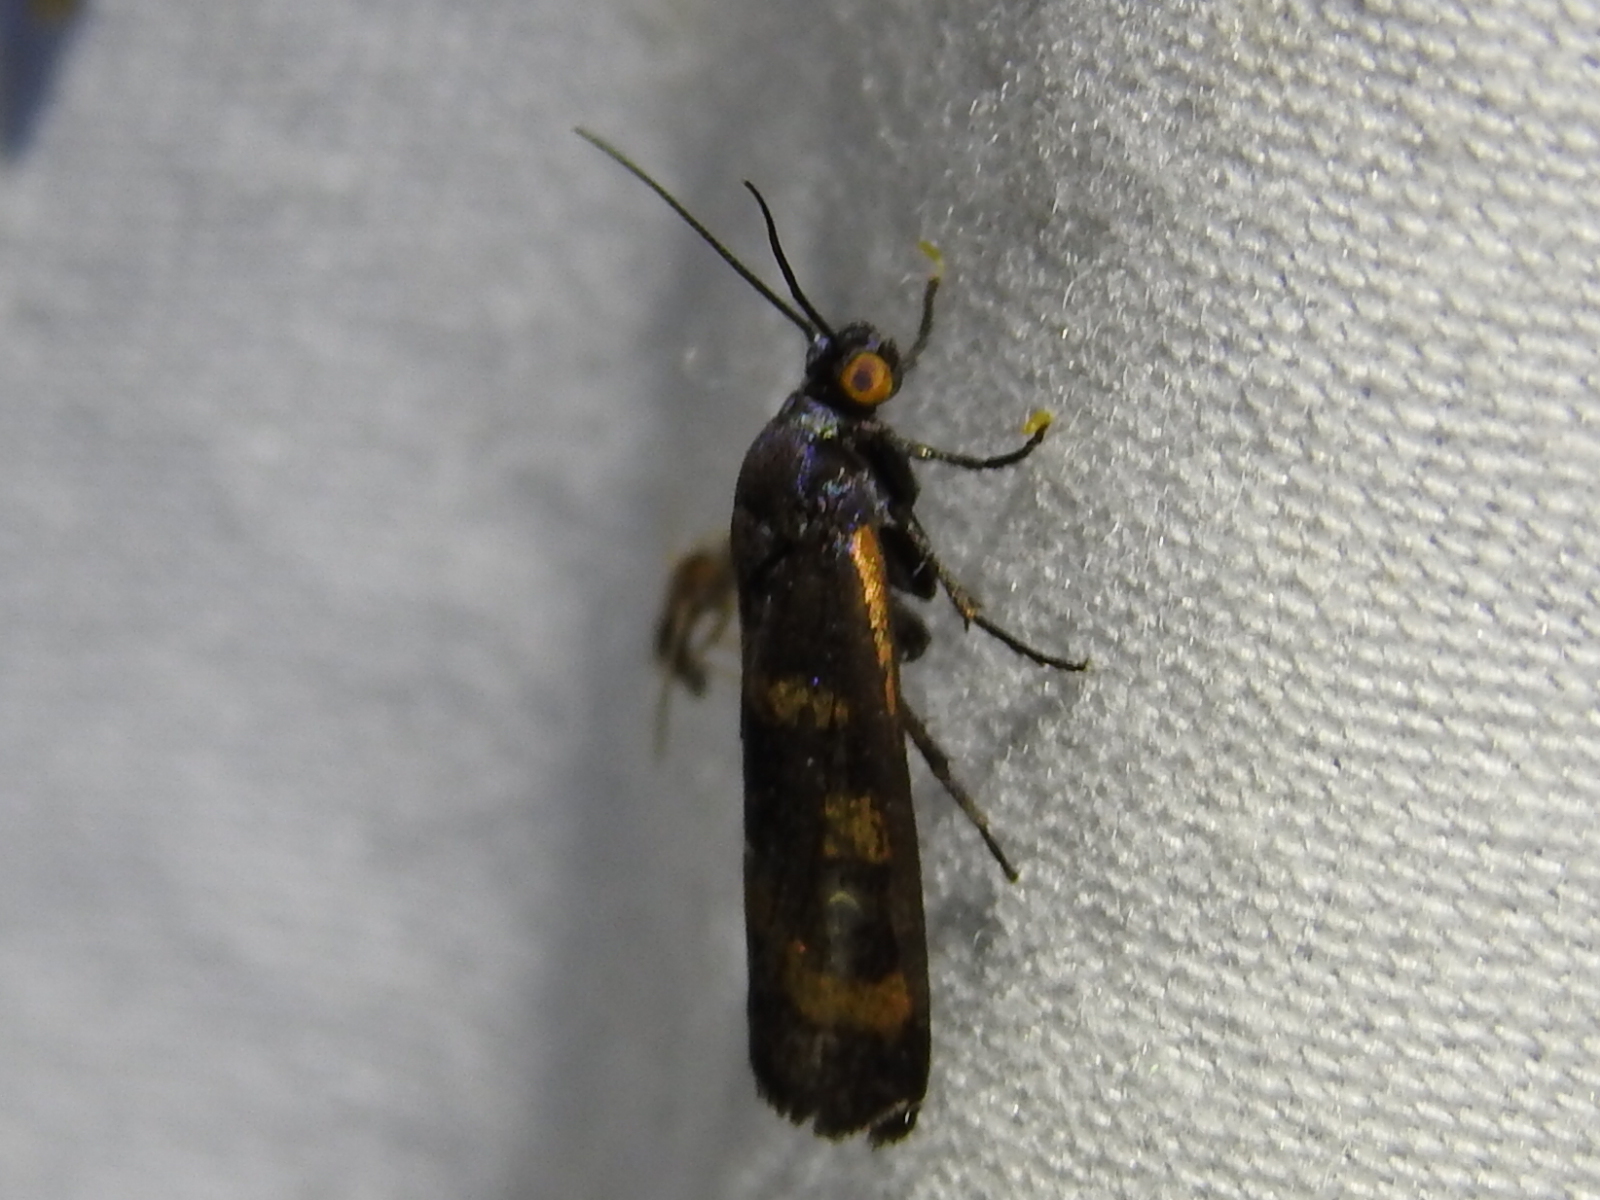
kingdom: Animalia
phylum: Arthropoda
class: Insecta
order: Lepidoptera
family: Noctuidae
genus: Cydosia
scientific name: Cydosia aurivitta
